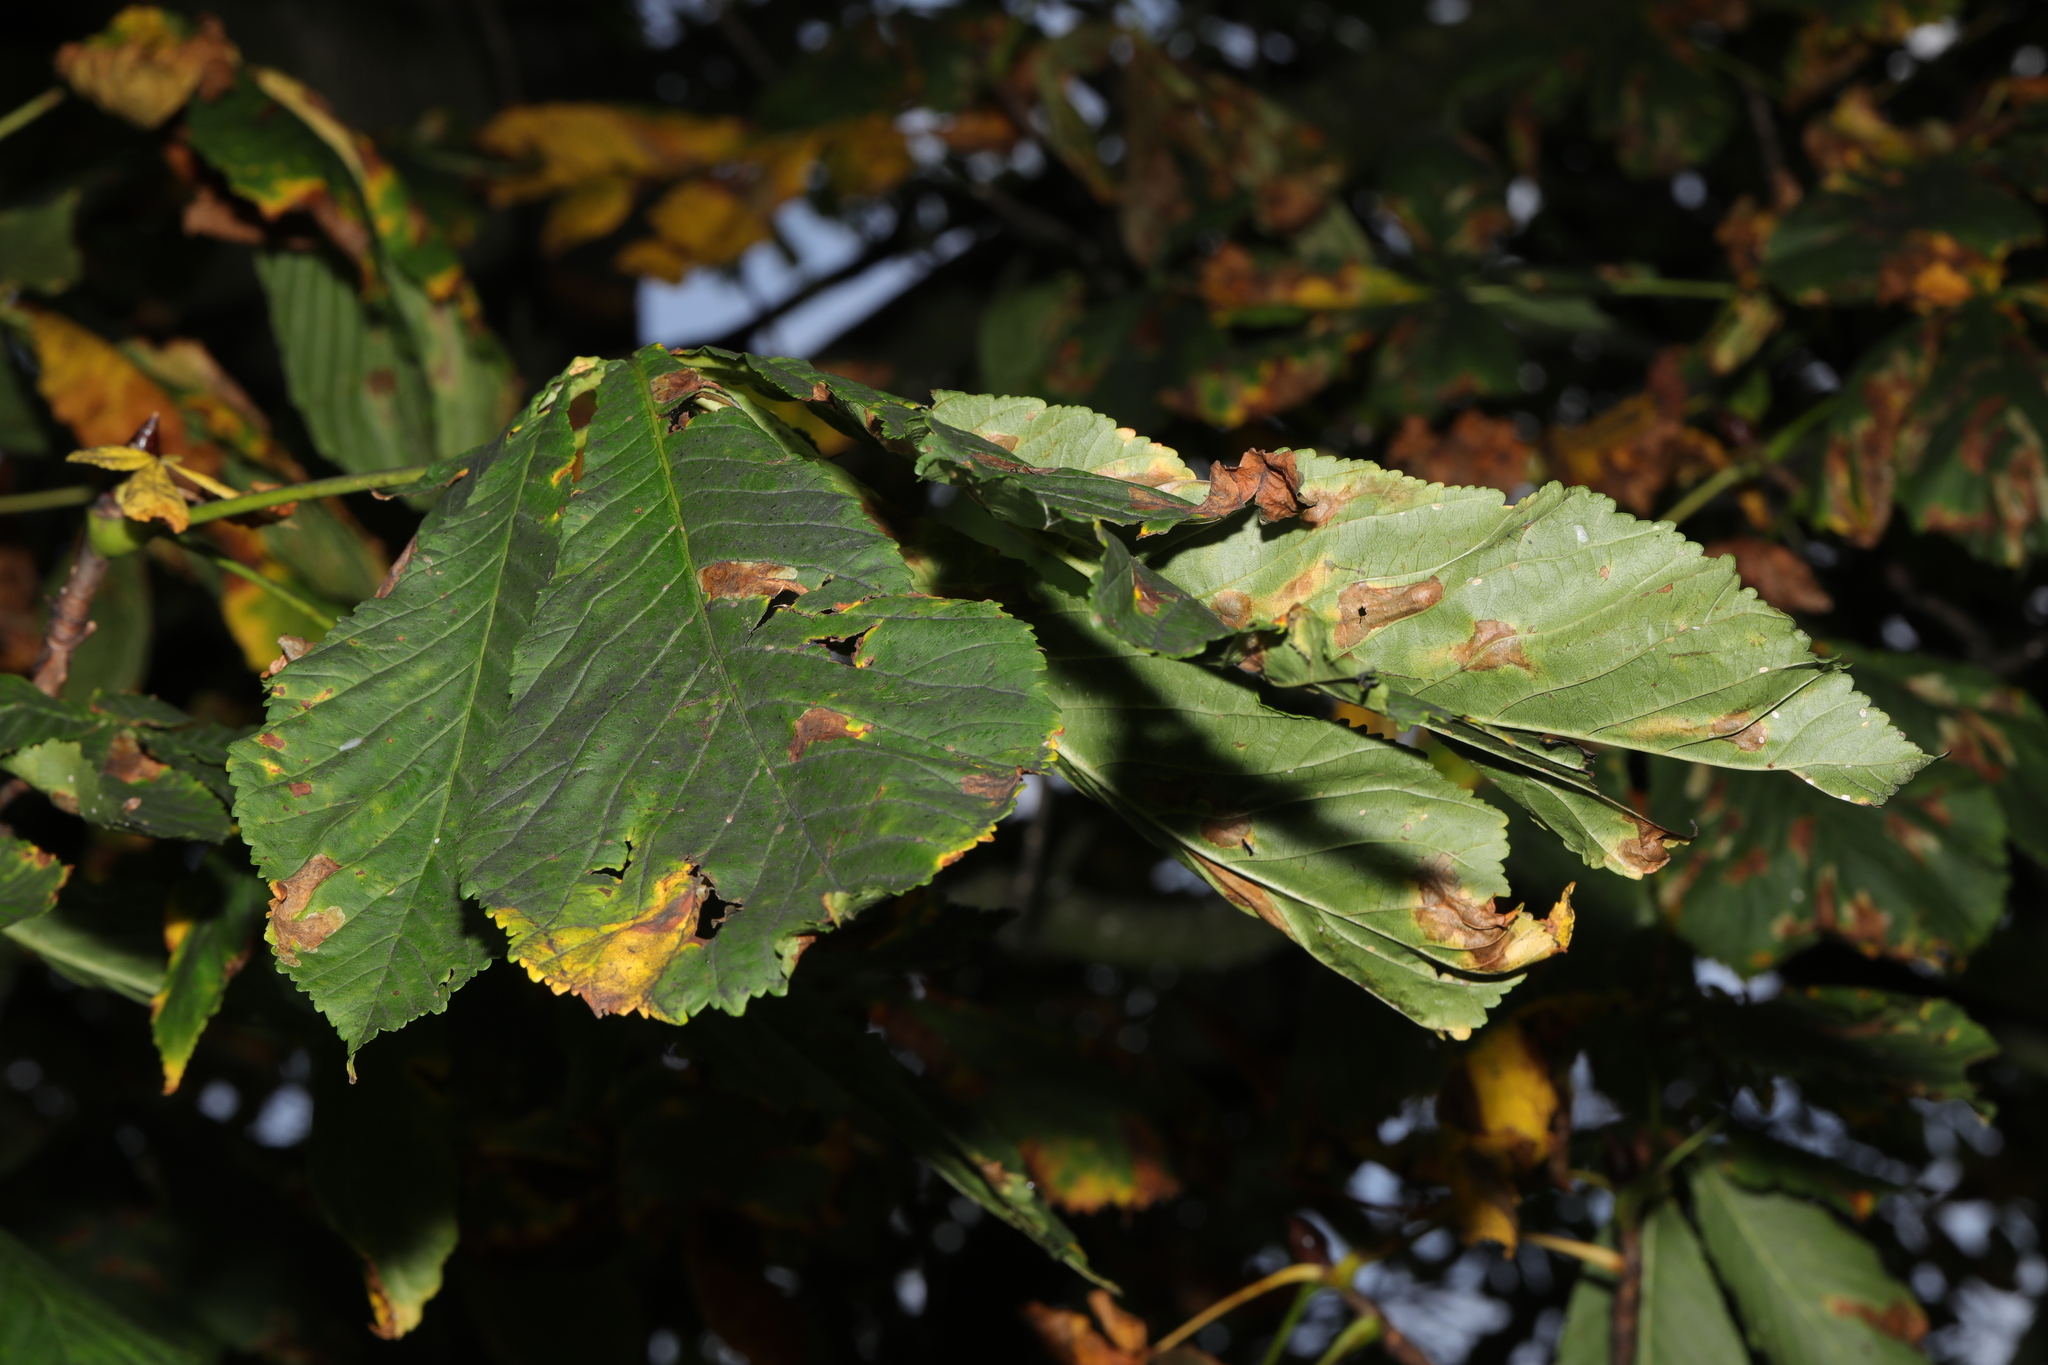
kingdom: Plantae
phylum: Tracheophyta
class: Magnoliopsida
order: Sapindales
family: Sapindaceae
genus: Aesculus
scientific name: Aesculus hippocastanum
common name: Horse-chestnut
